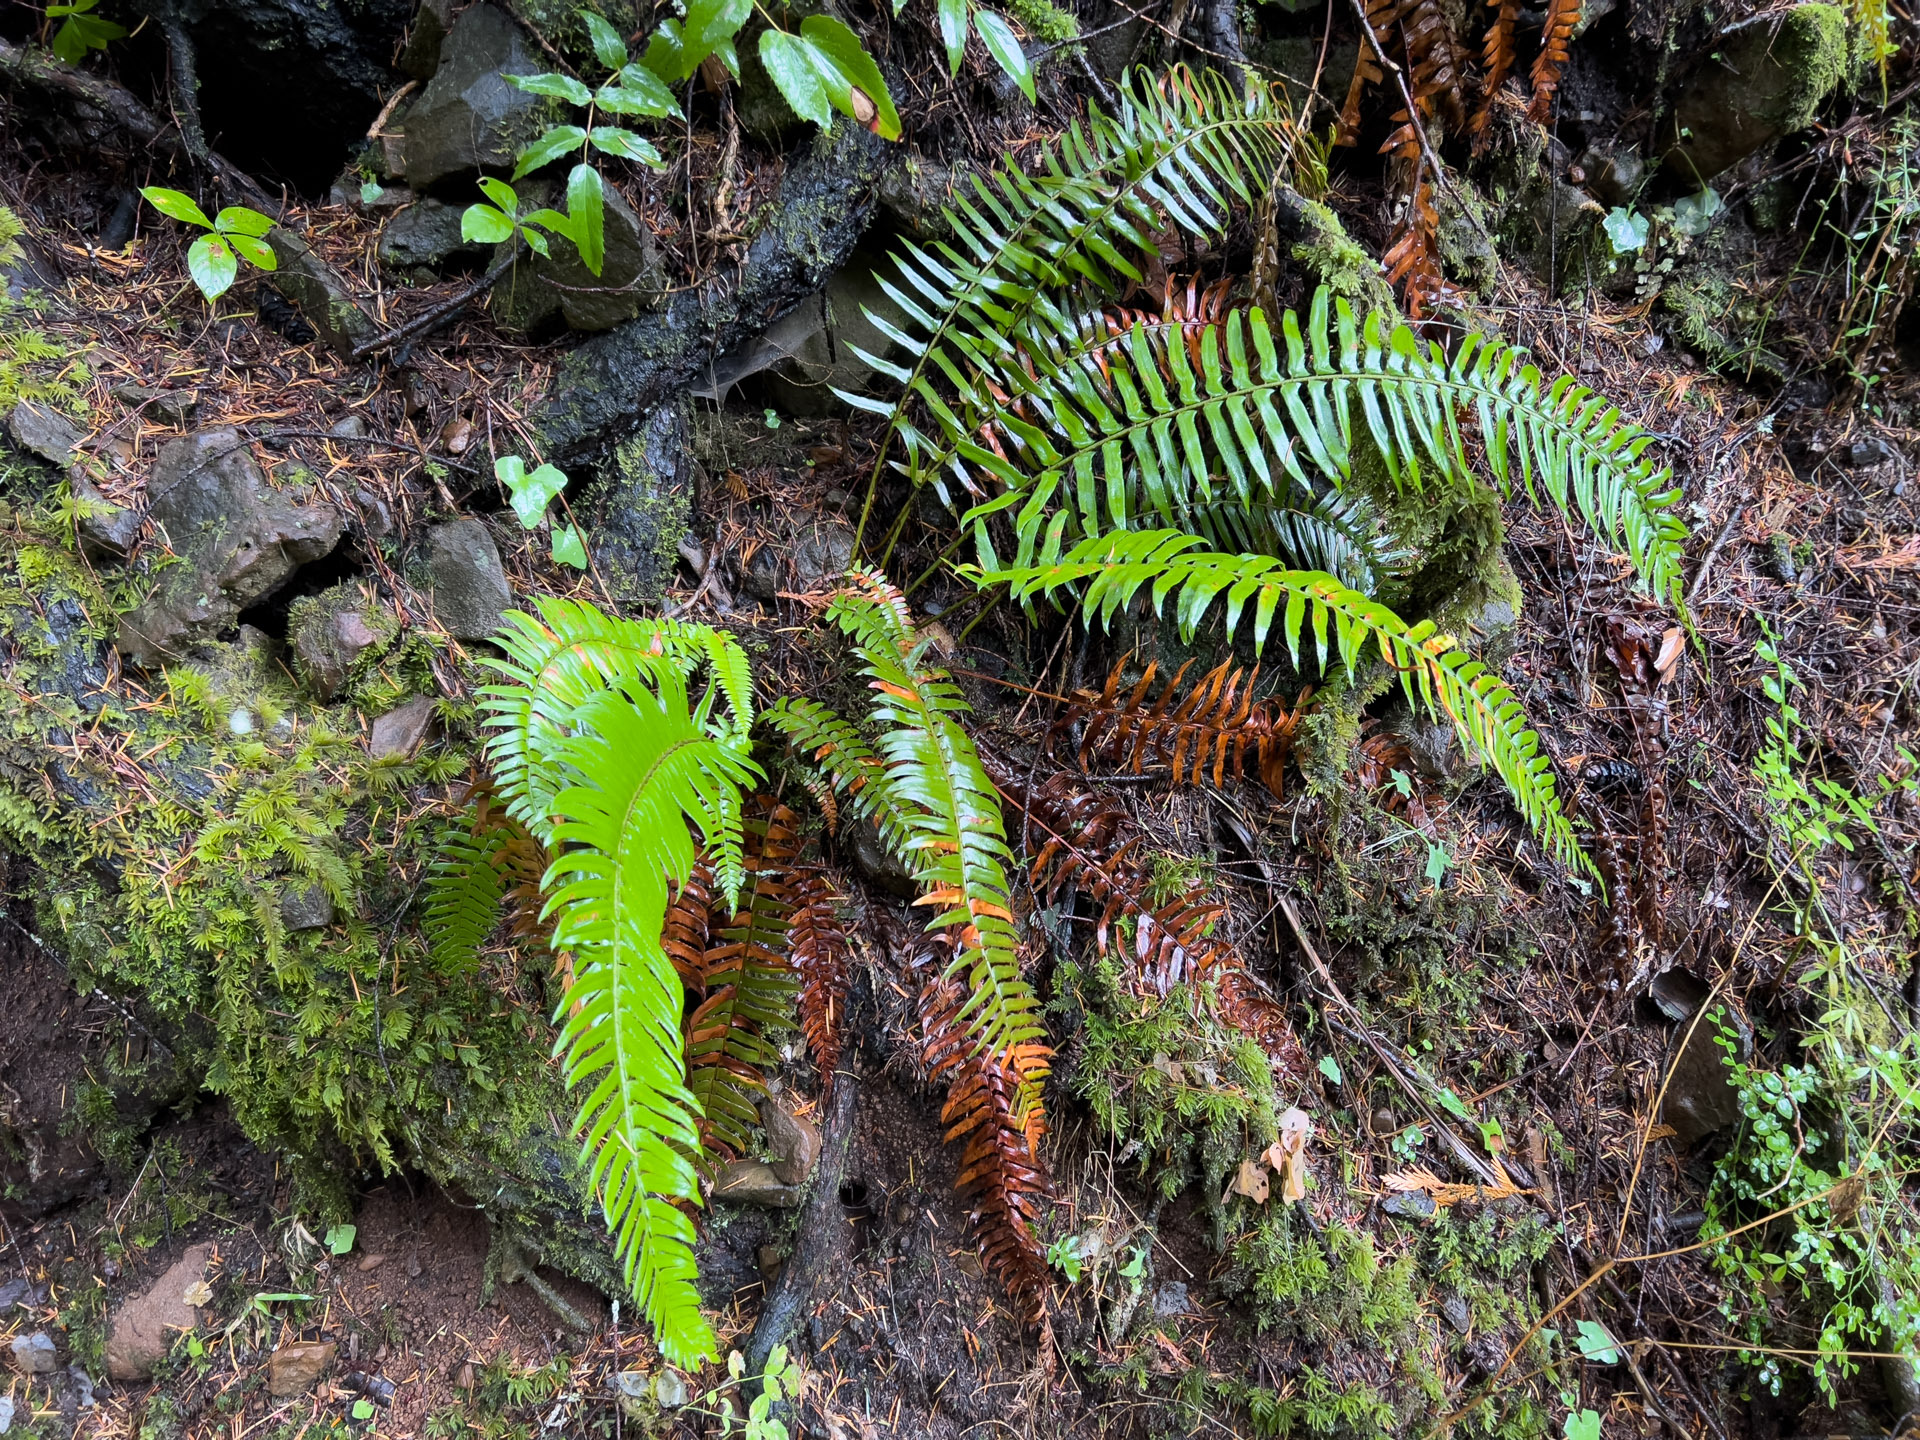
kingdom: Plantae
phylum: Tracheophyta
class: Polypodiopsida
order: Polypodiales
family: Dryopteridaceae
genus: Polystichum
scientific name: Polystichum munitum
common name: Western sword-fern
